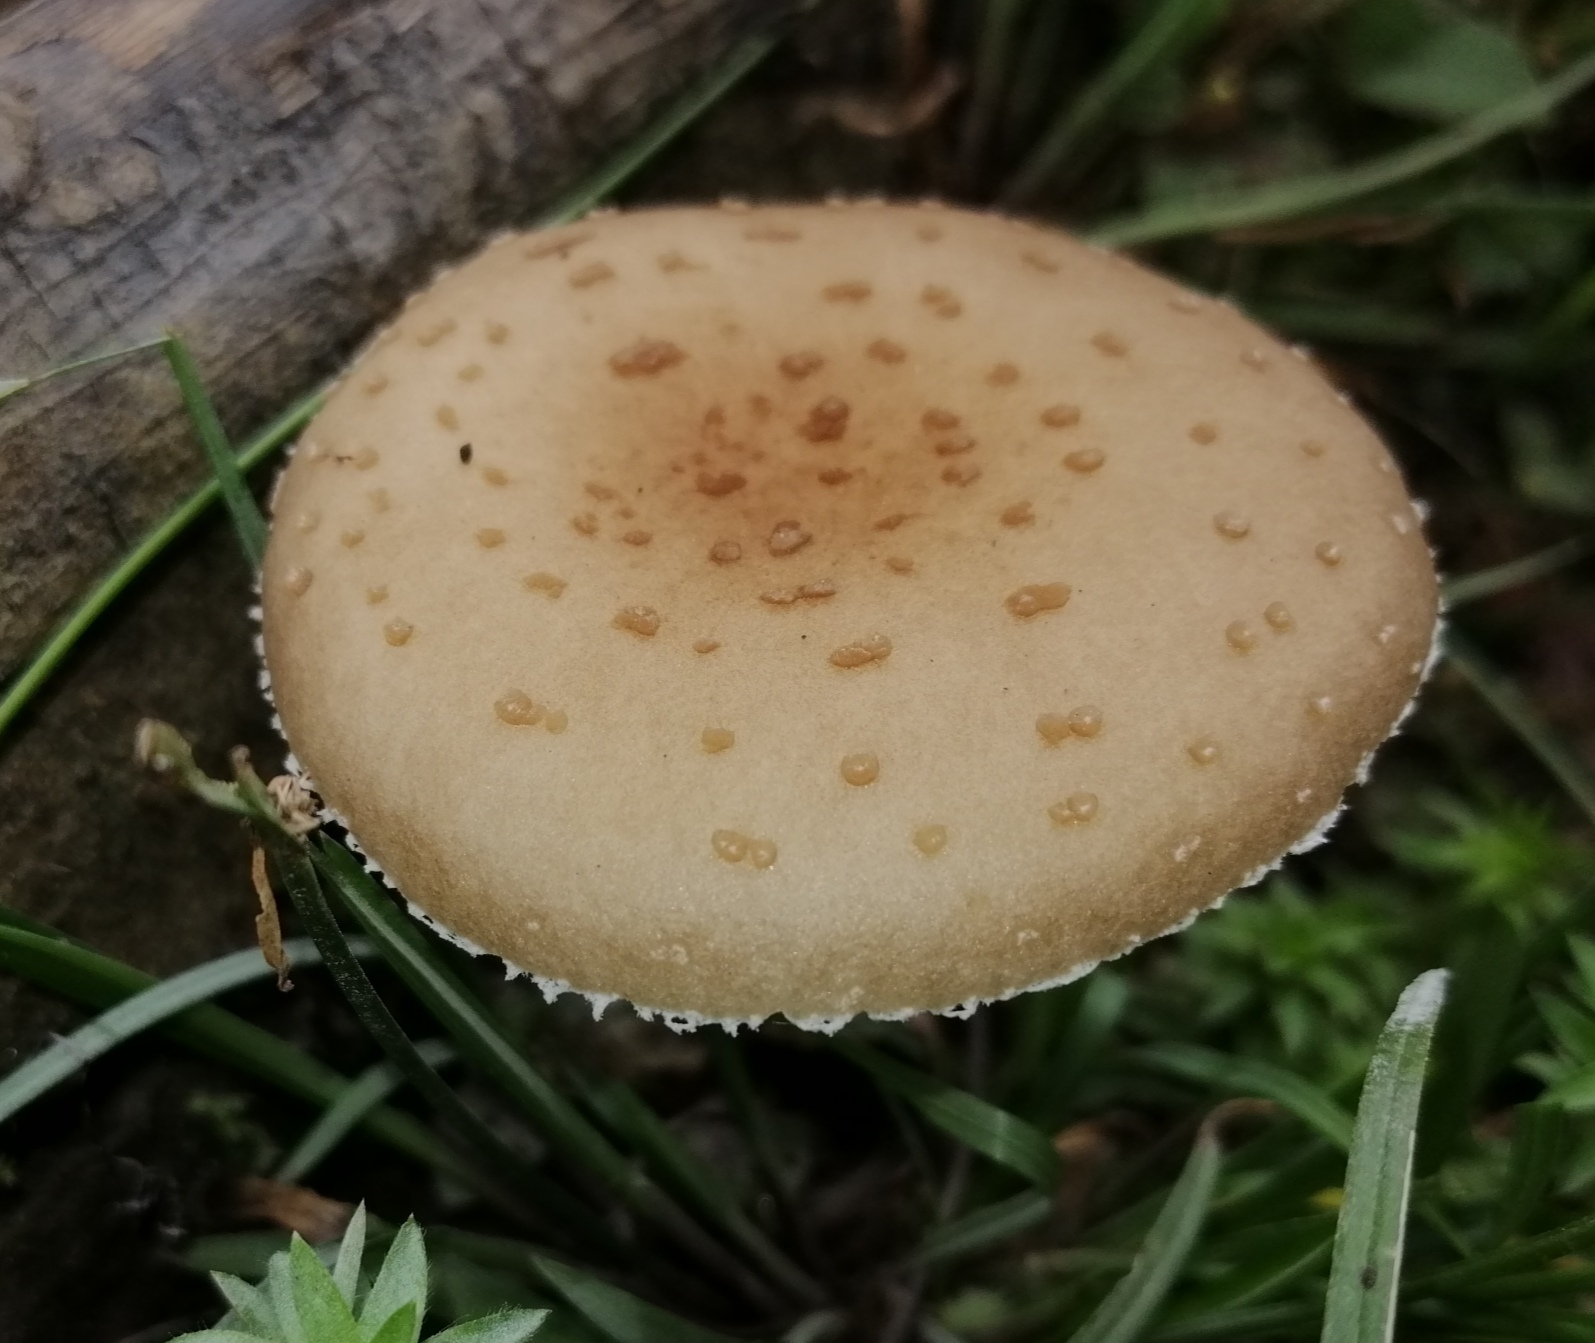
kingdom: Fungi
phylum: Basidiomycota
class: Agaricomycetes
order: Agaricales
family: Physalacriaceae
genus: Oudemansiella
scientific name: Oudemansiella canarii
